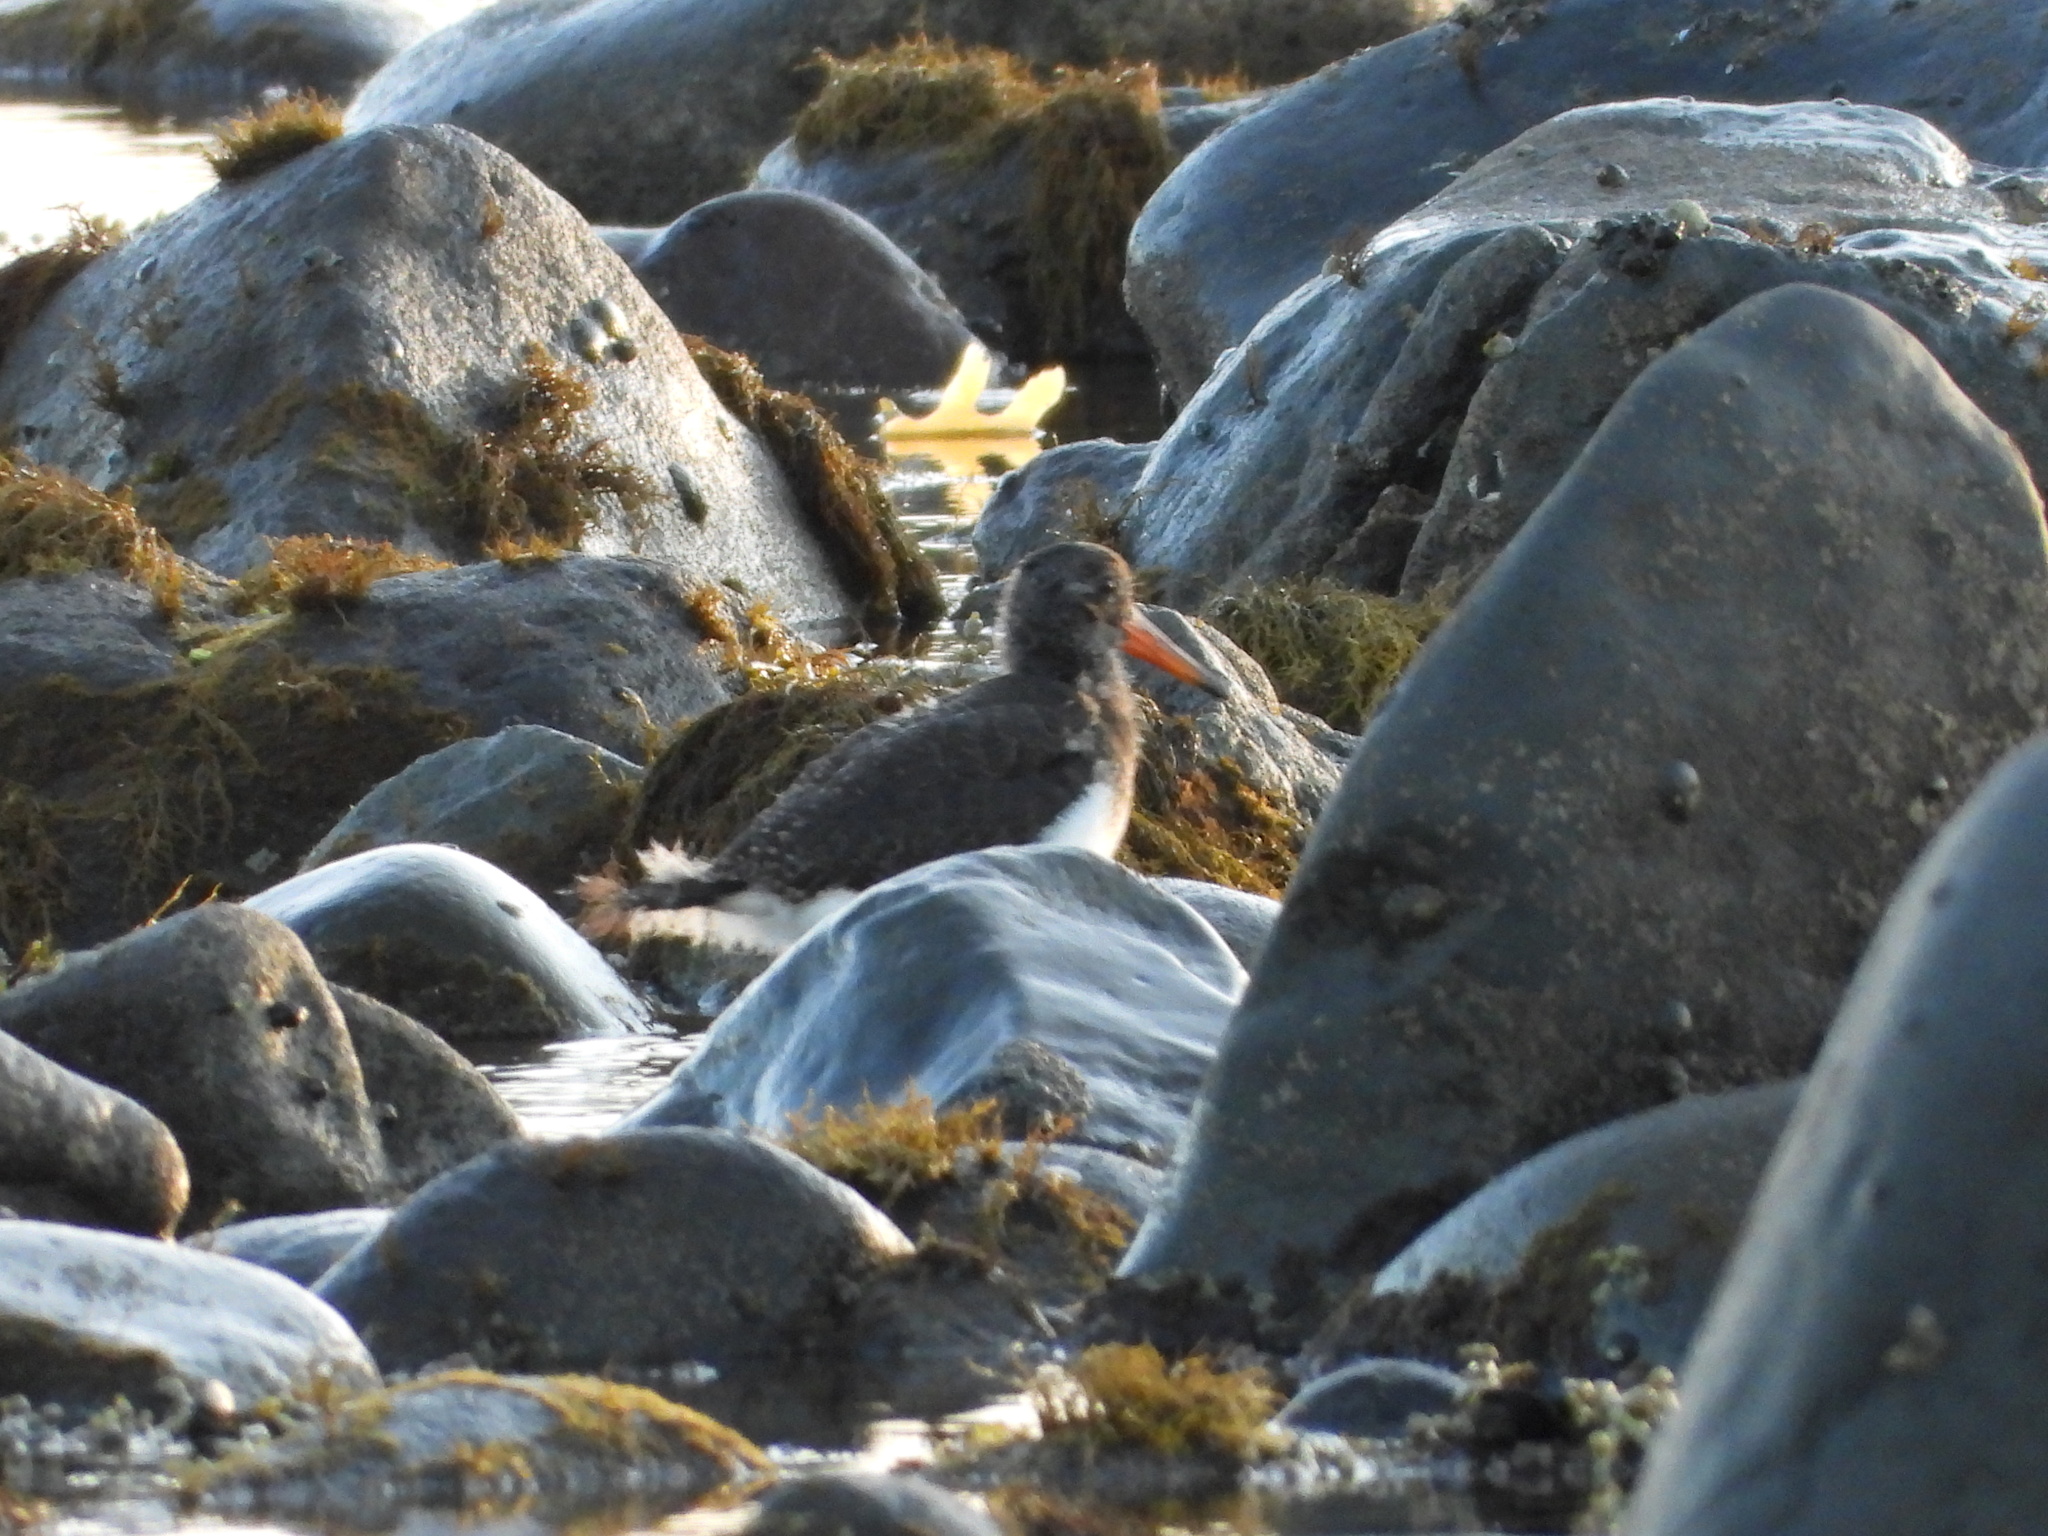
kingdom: Animalia
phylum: Chordata
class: Aves
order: Charadriiformes
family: Haematopodidae
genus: Haematopus
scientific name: Haematopus unicolor
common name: Variable oystercatcher
